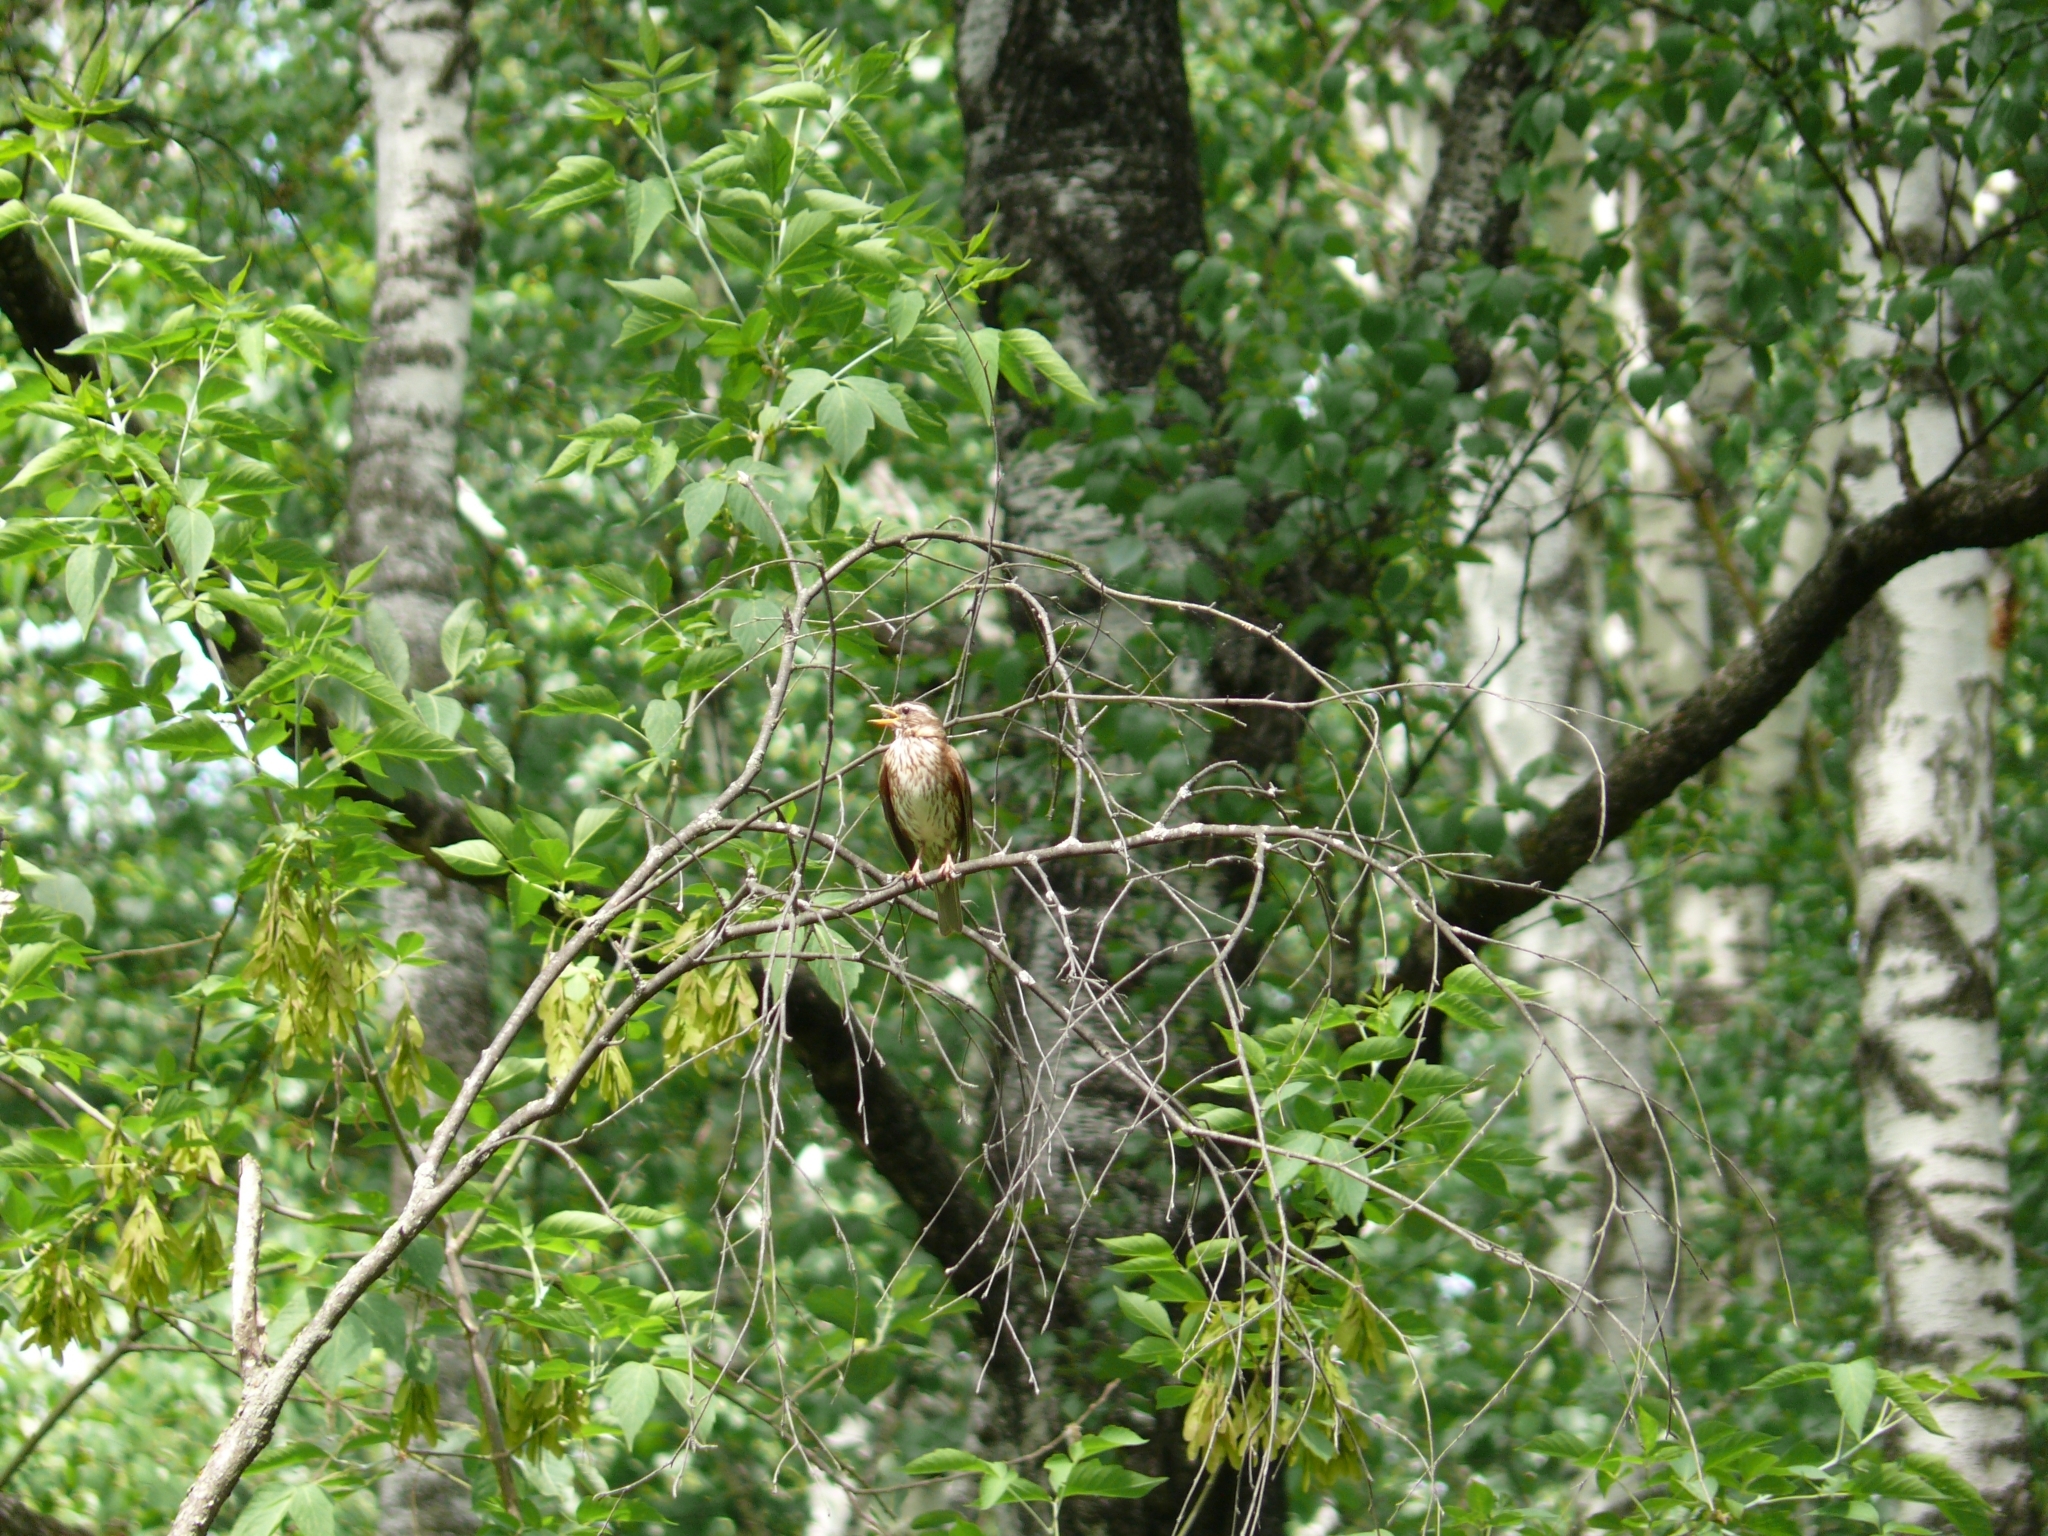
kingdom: Animalia
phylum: Chordata
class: Aves
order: Passeriformes
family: Turdidae
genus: Turdus
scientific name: Turdus iliacus
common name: Redwing
